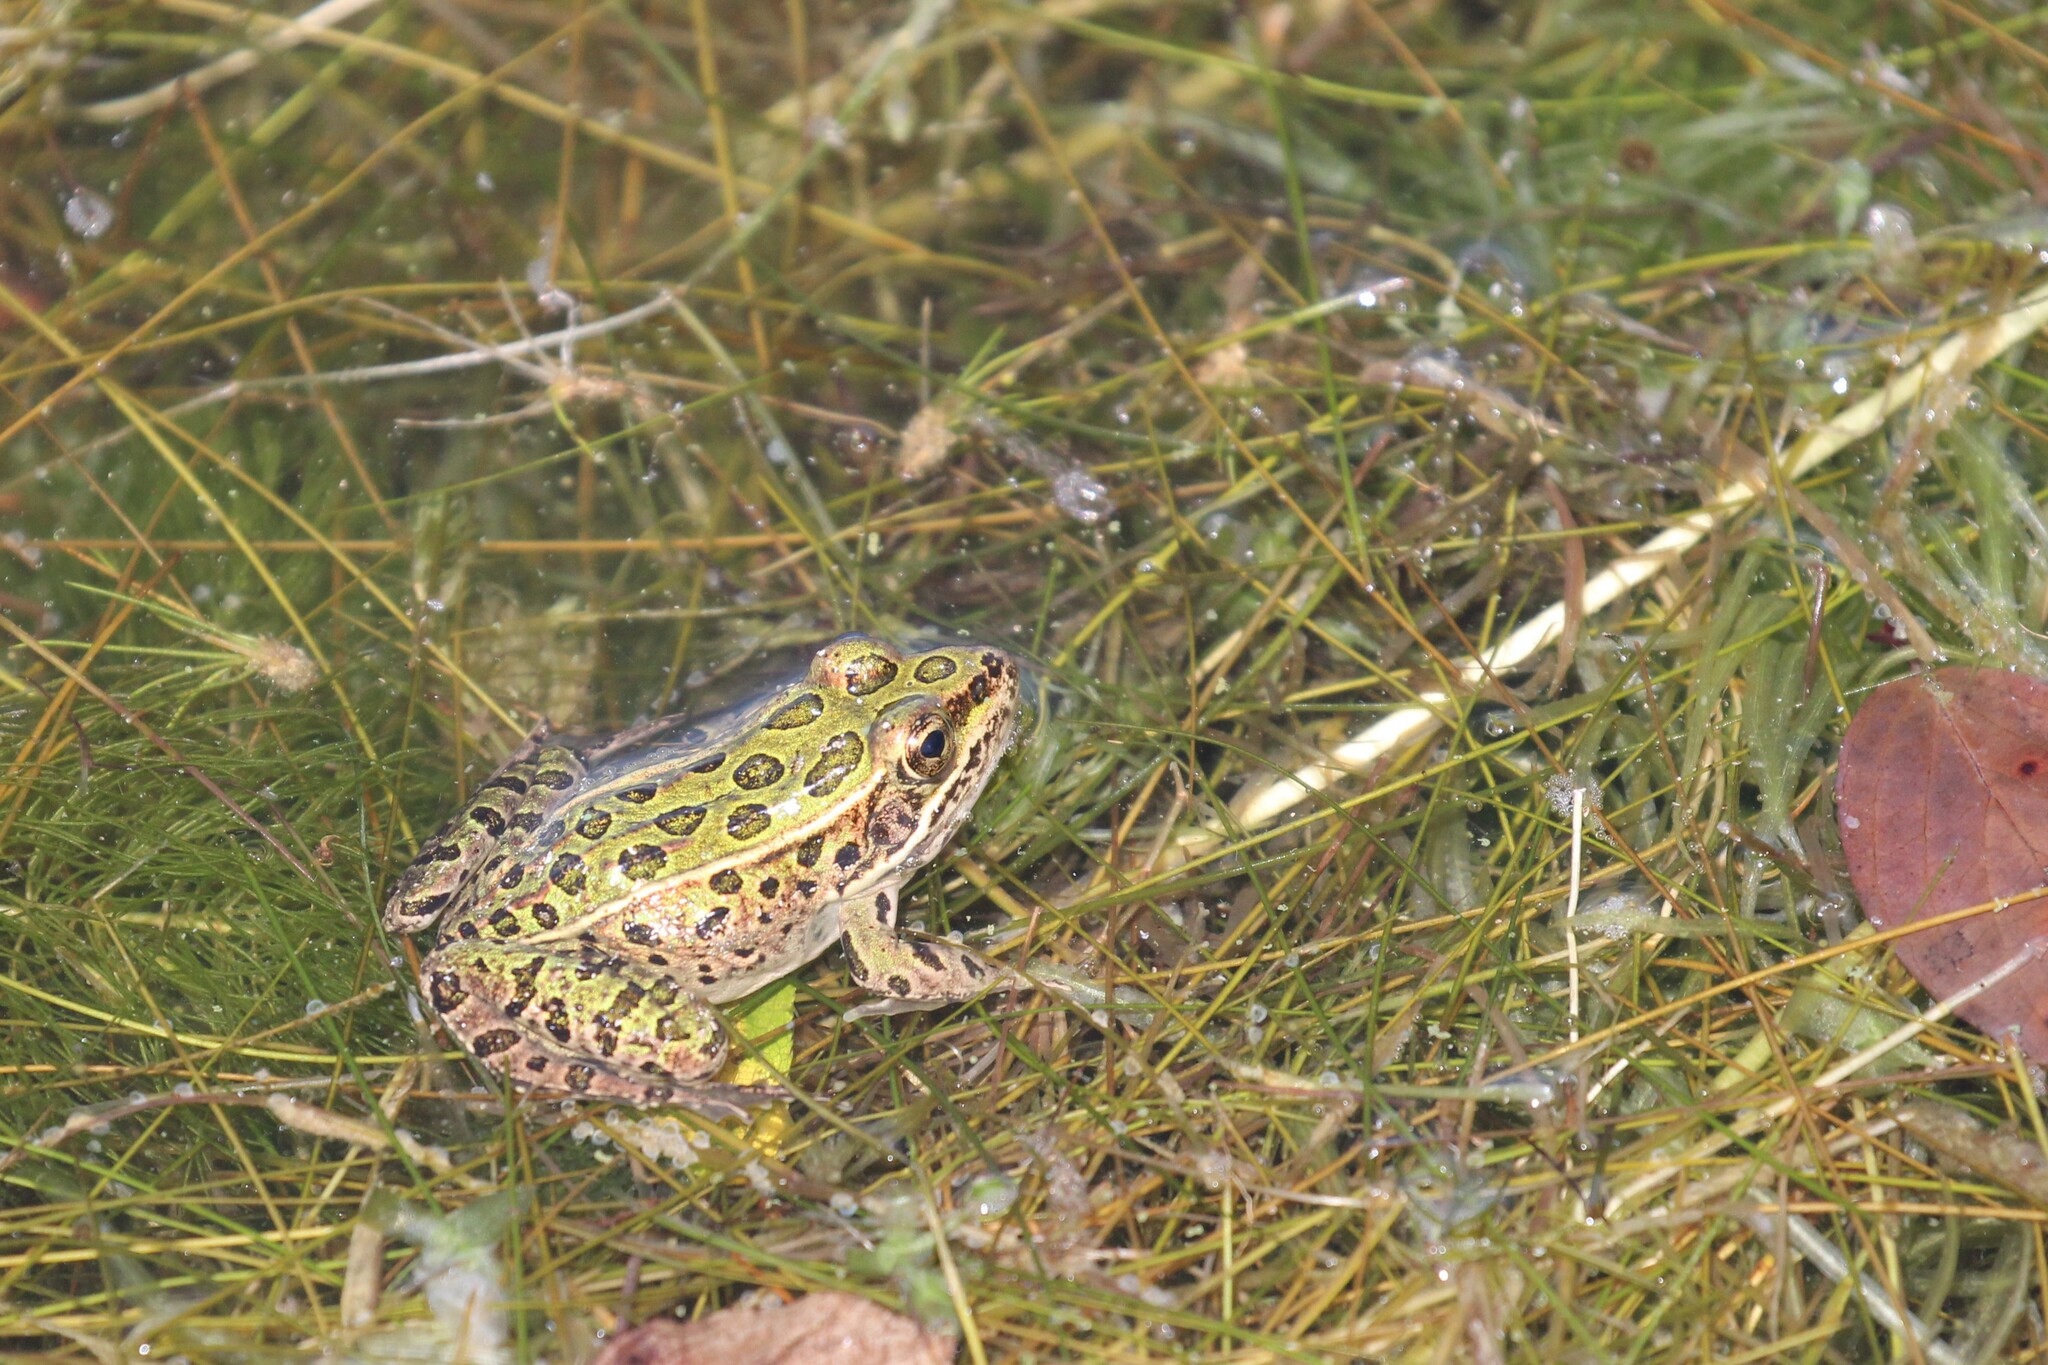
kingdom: Animalia
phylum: Chordata
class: Amphibia
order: Anura
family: Ranidae
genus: Lithobates
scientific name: Lithobates pipiens
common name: Northern leopard frog
